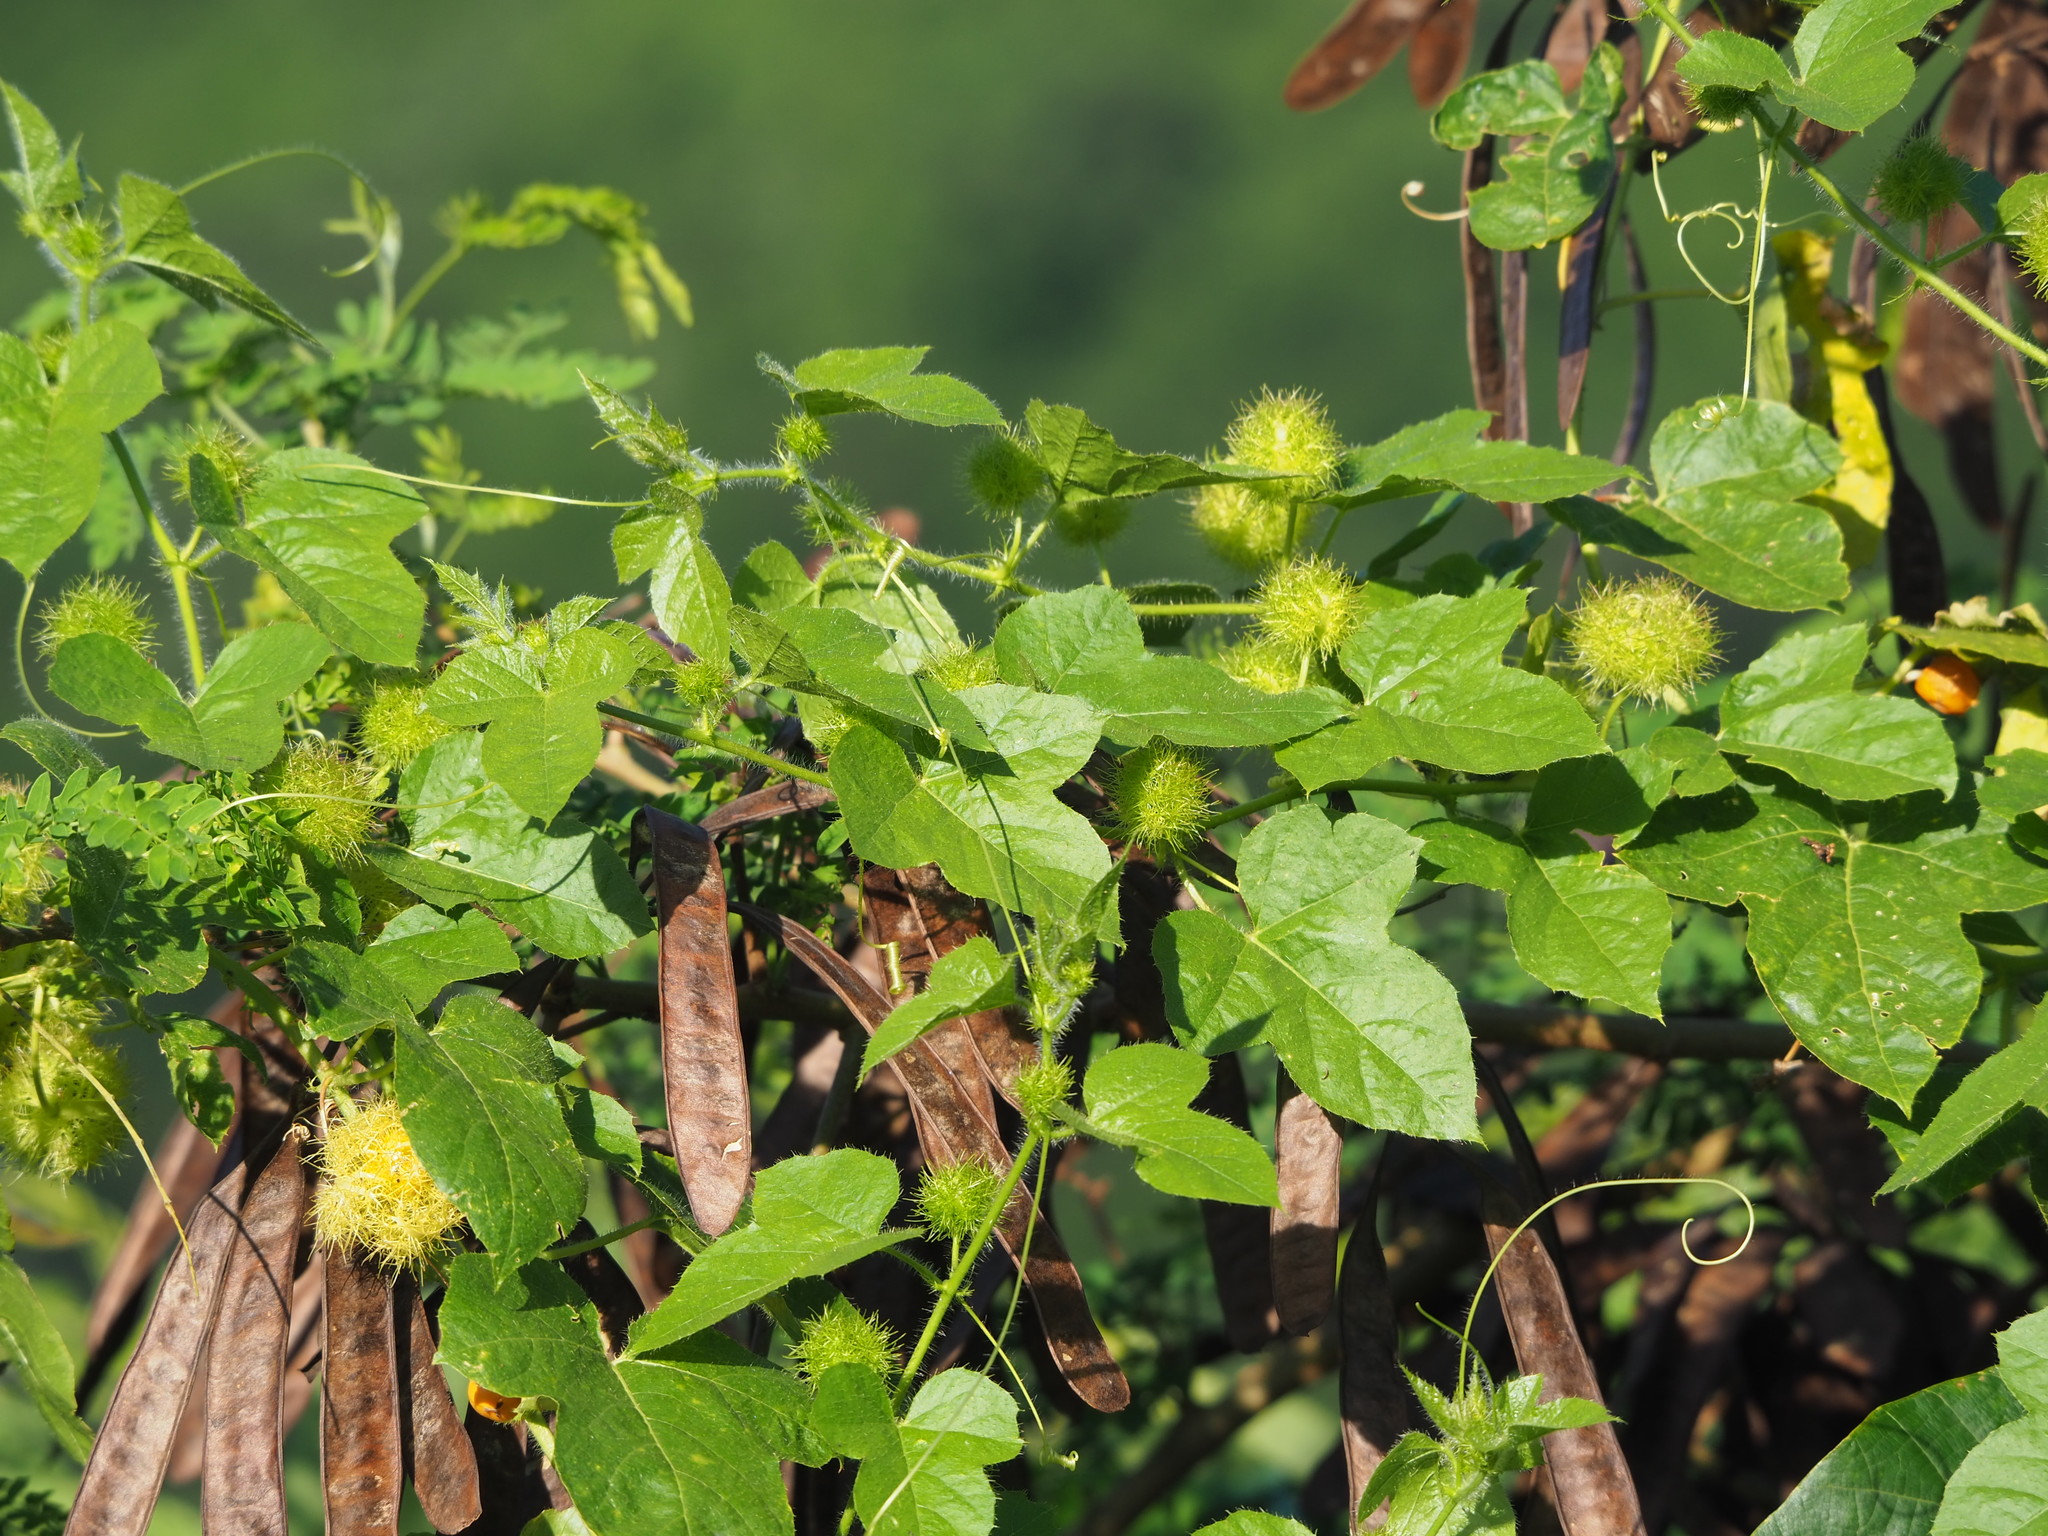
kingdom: Plantae
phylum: Tracheophyta
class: Magnoliopsida
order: Malpighiales
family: Passifloraceae
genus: Passiflora
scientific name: Passiflora vesicaria
